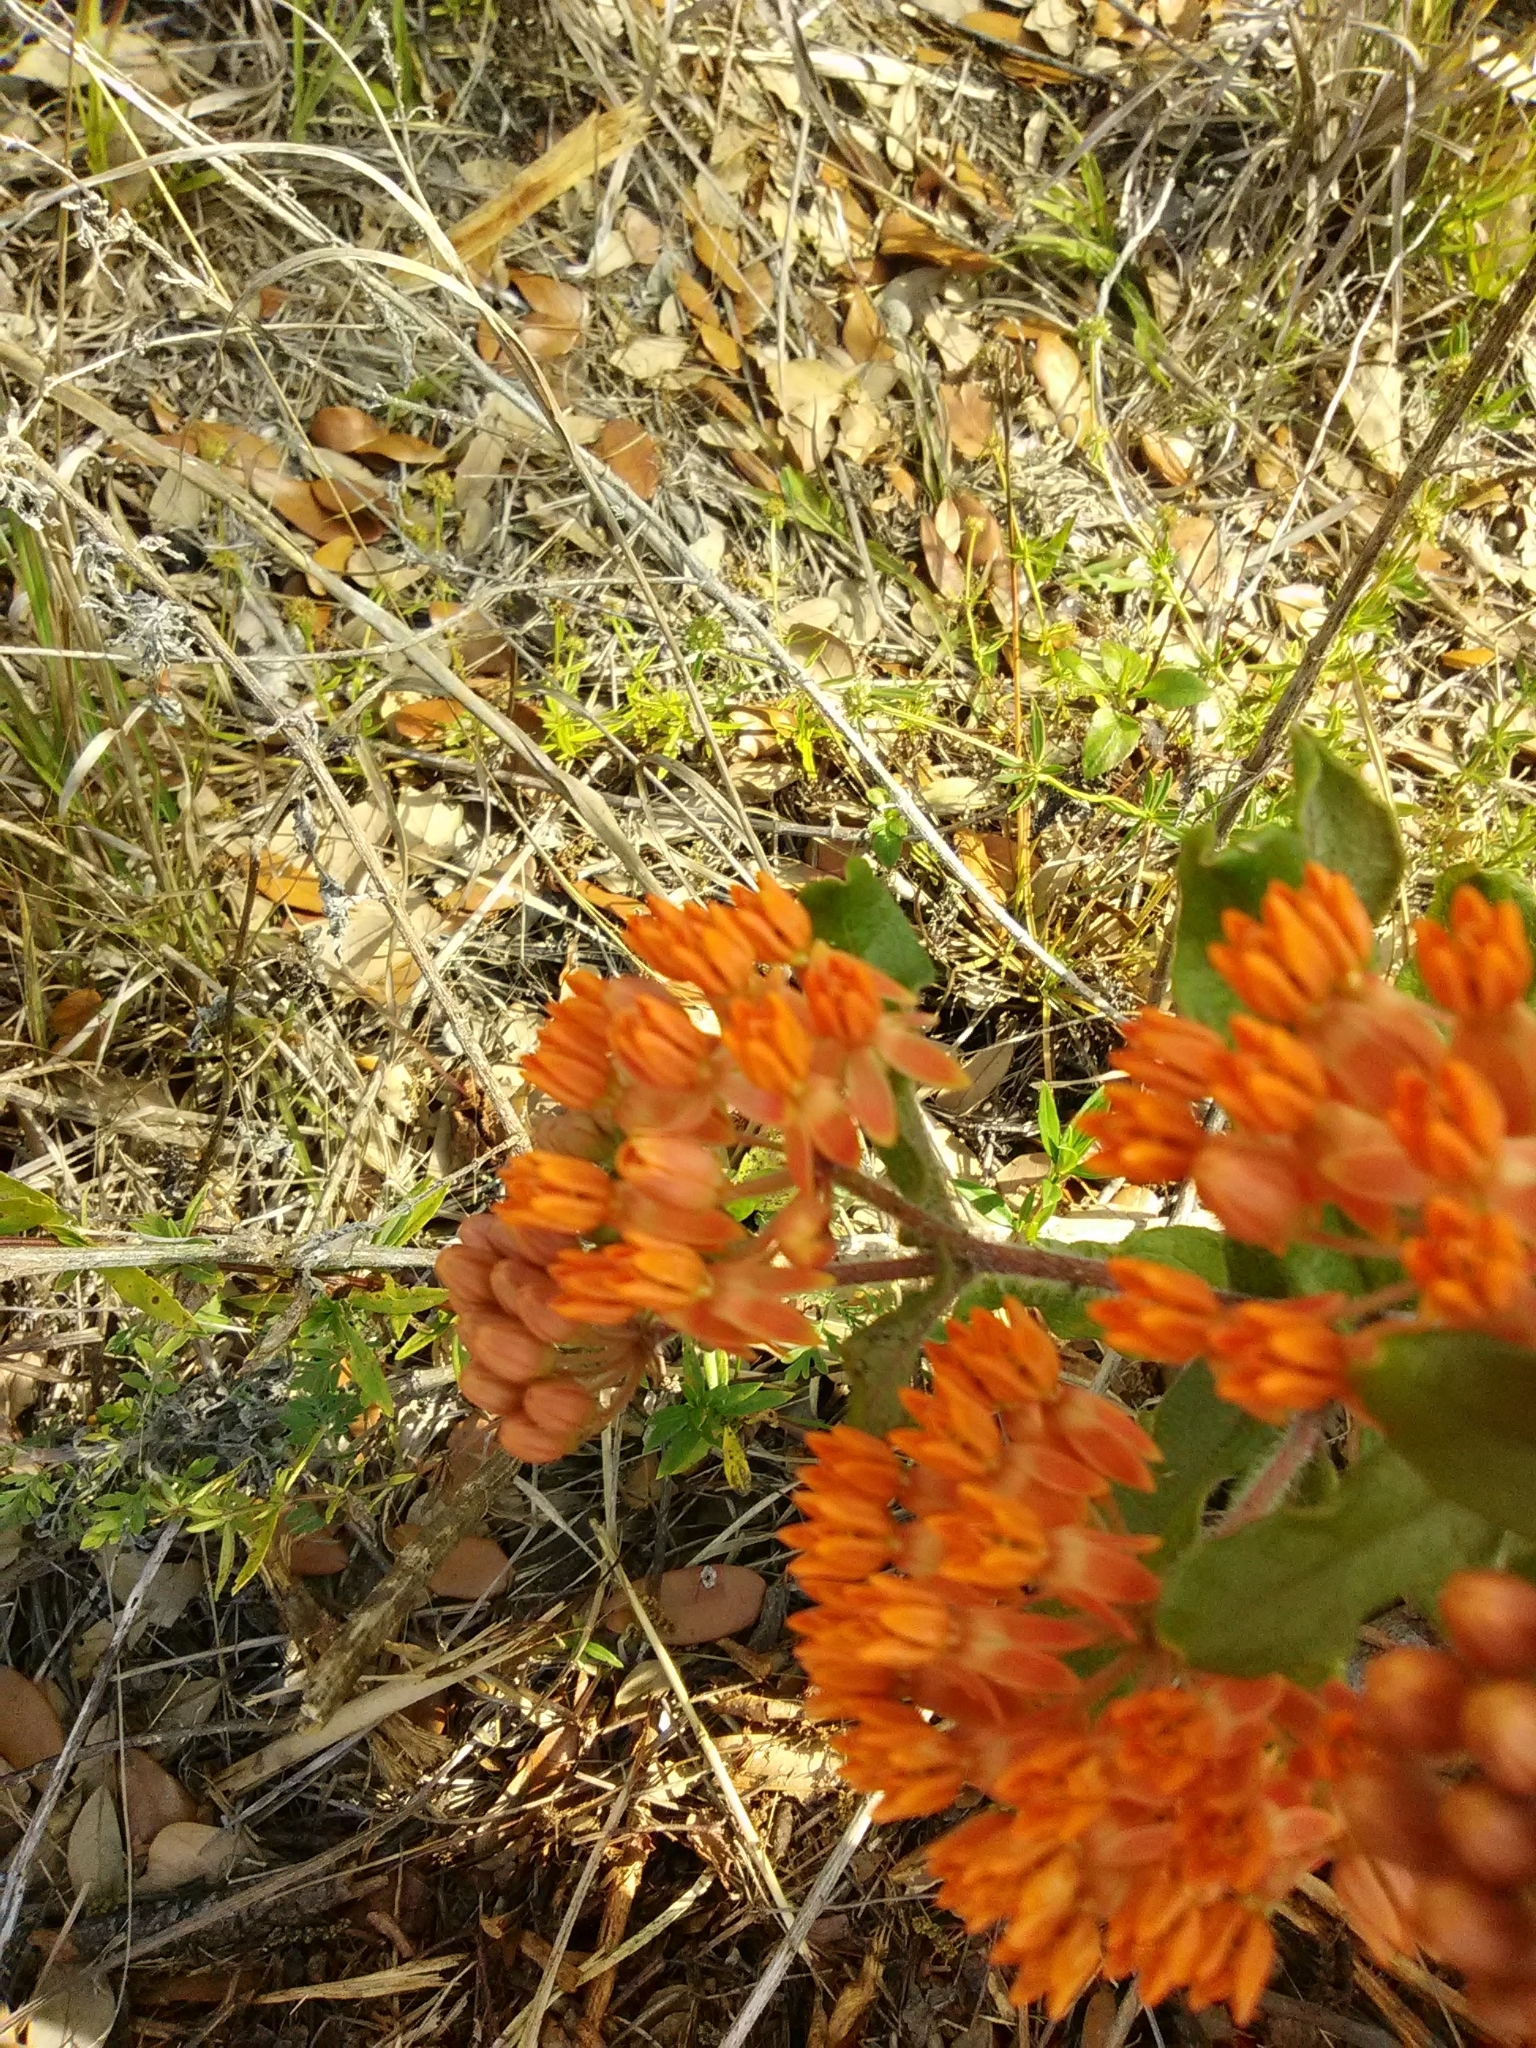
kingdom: Plantae
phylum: Tracheophyta
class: Magnoliopsida
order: Gentianales
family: Apocynaceae
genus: Asclepias
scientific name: Asclepias tuberosa
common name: Butterfly milkweed
